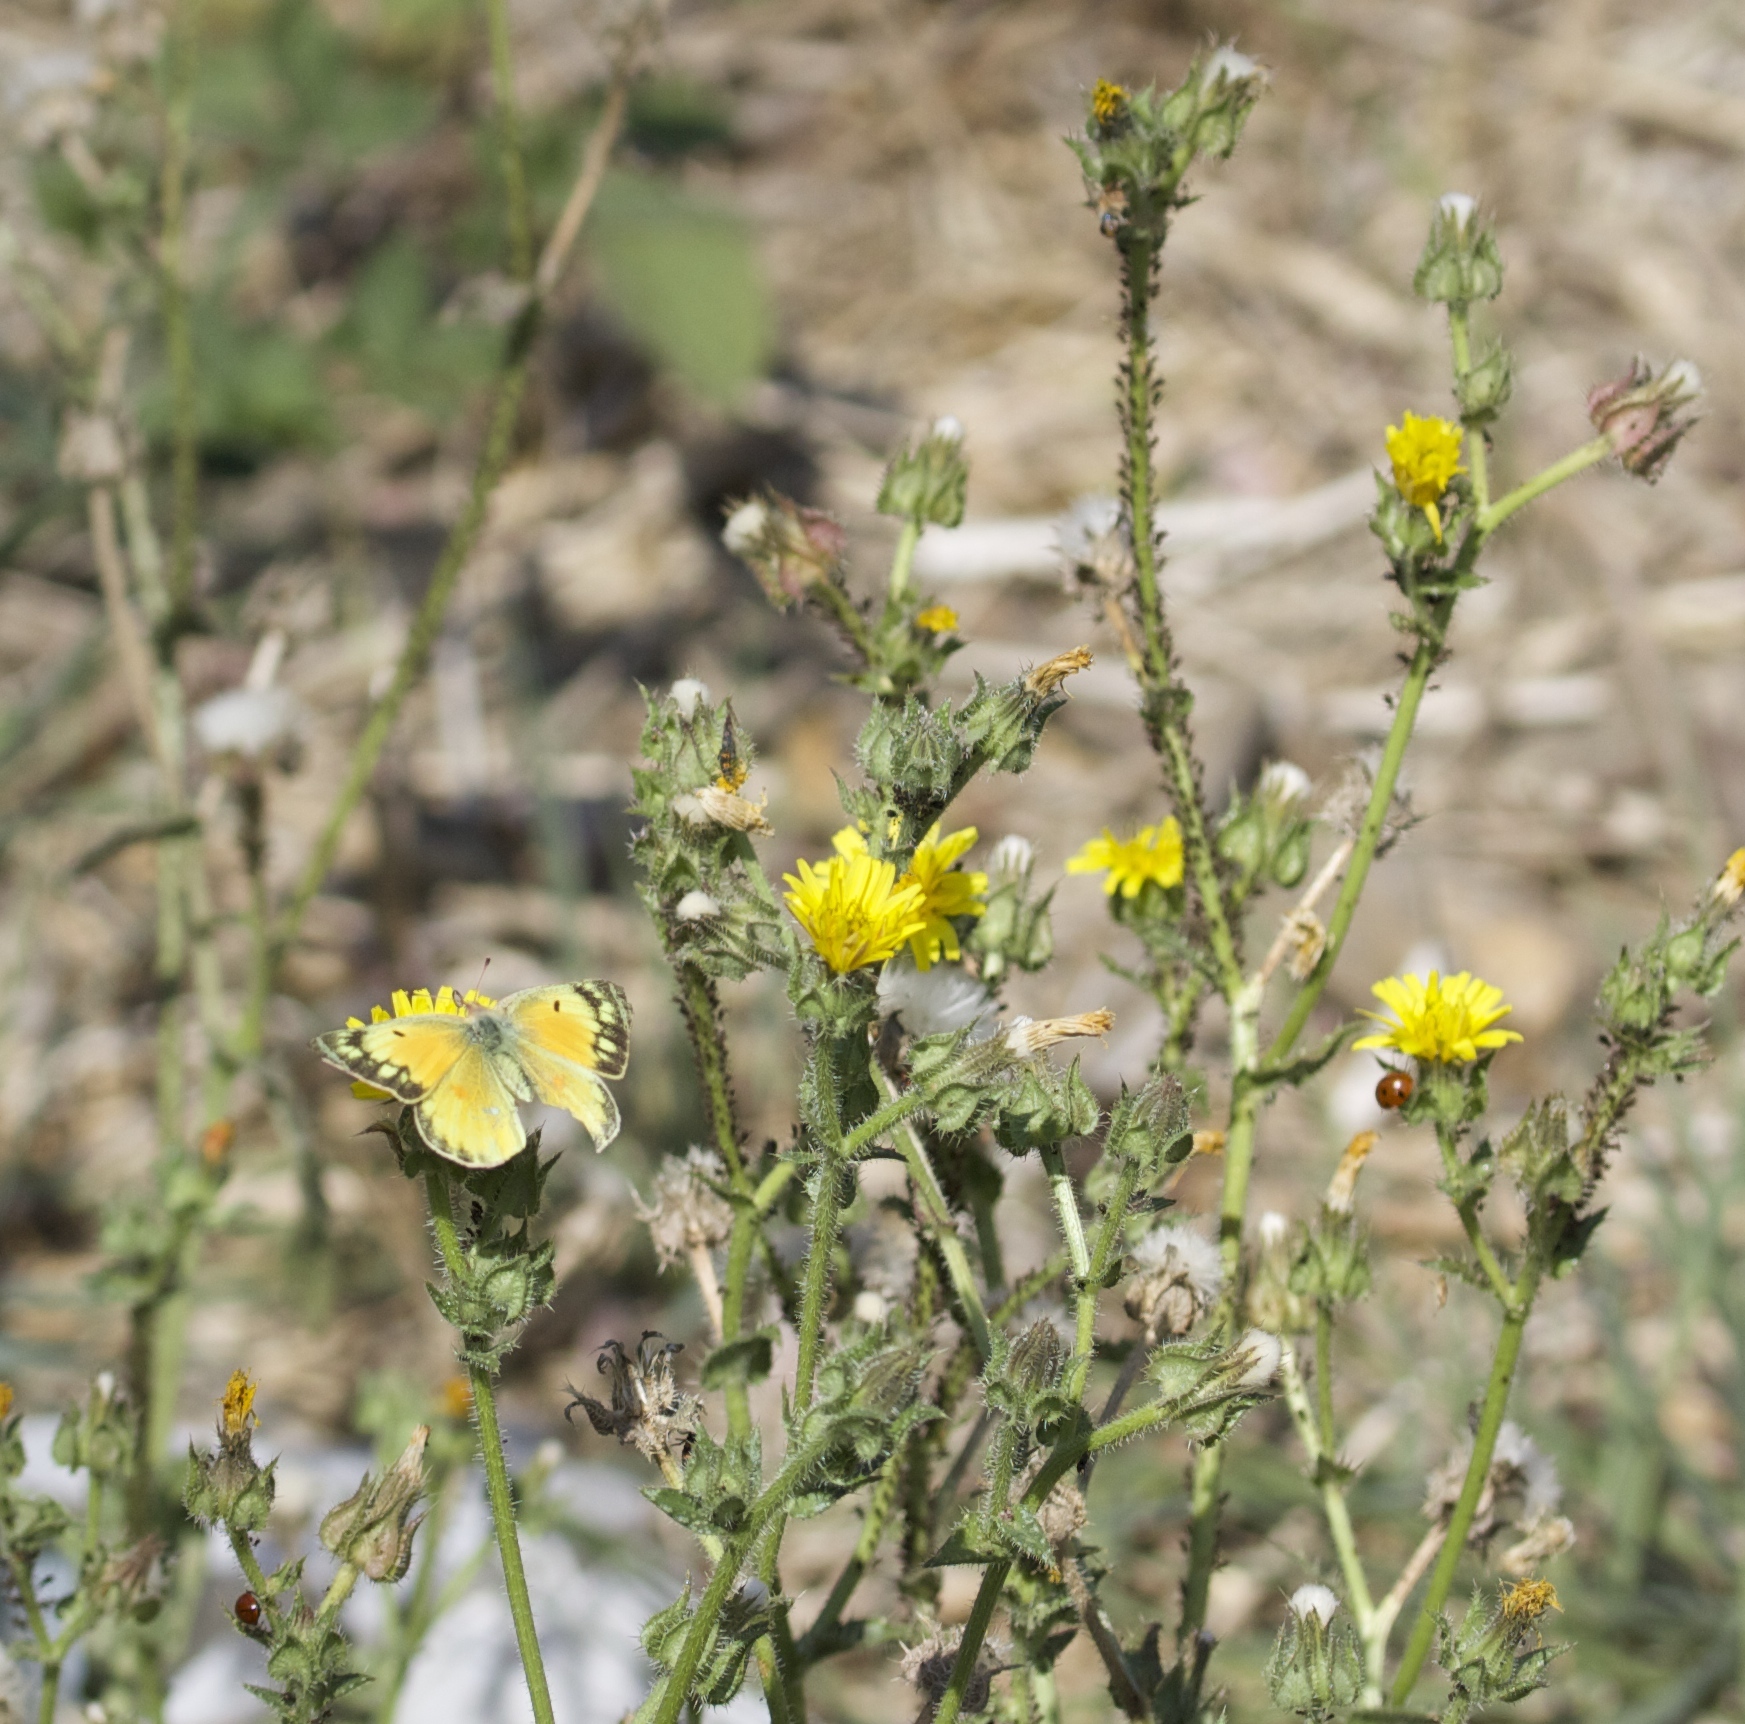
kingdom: Animalia
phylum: Arthropoda
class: Insecta
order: Lepidoptera
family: Pieridae
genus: Colias
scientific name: Colias eurytheme
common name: Alfalfa butterfly
